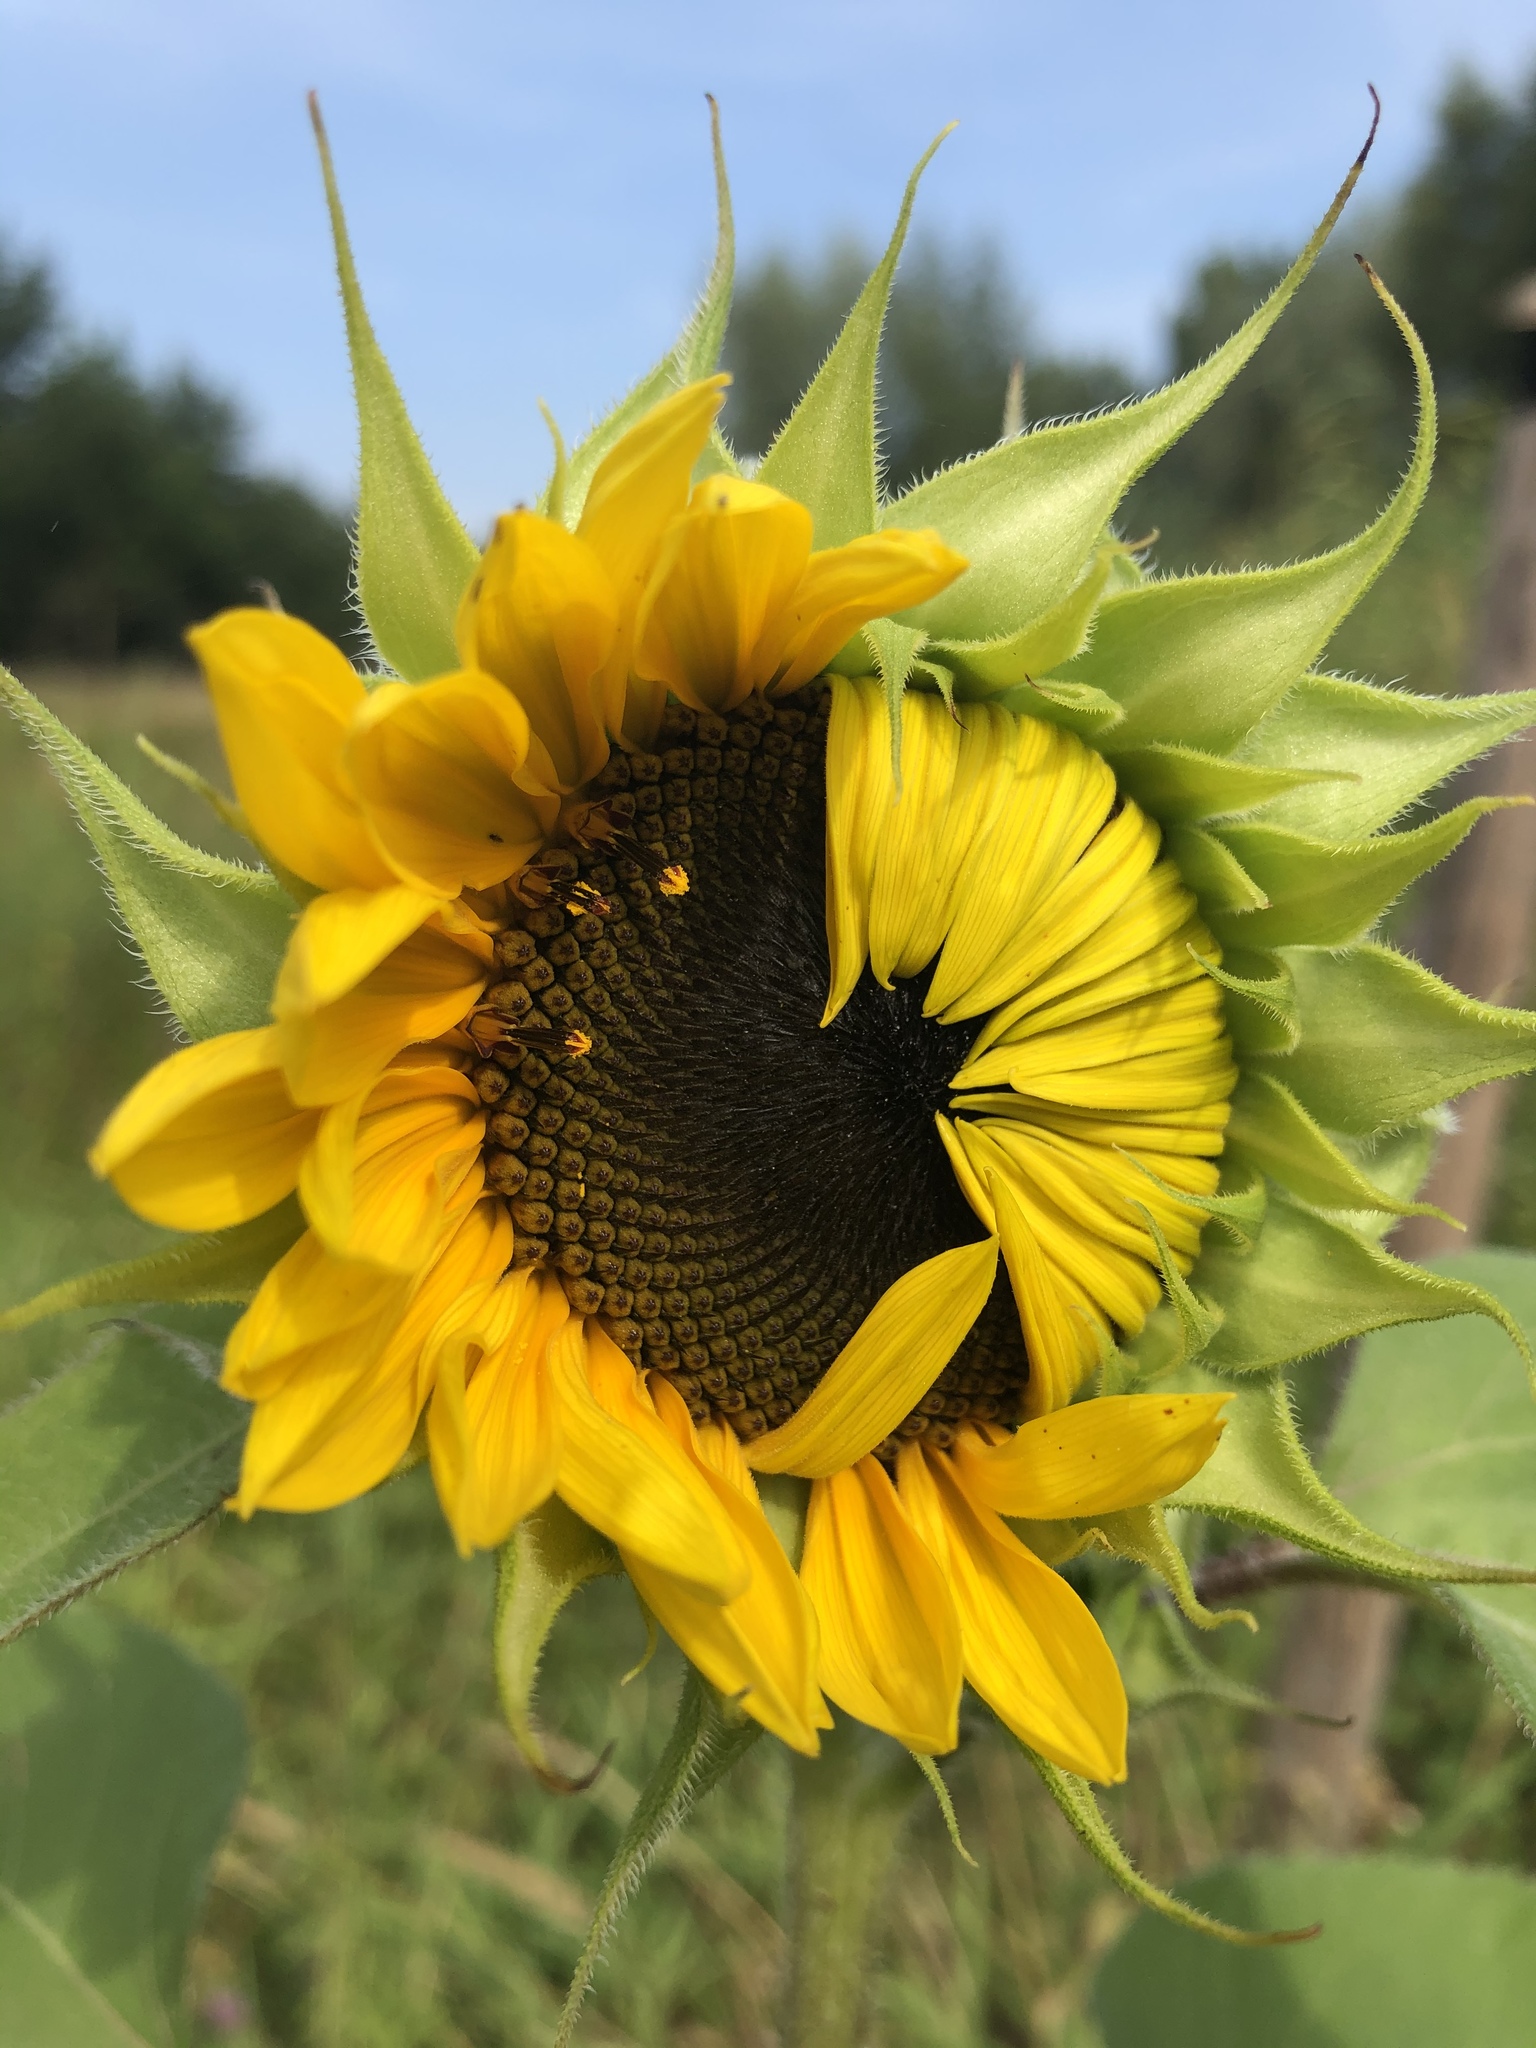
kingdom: Plantae
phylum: Tracheophyta
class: Magnoliopsida
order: Asterales
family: Asteraceae
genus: Helianthus
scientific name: Helianthus annuus
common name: Sunflower
